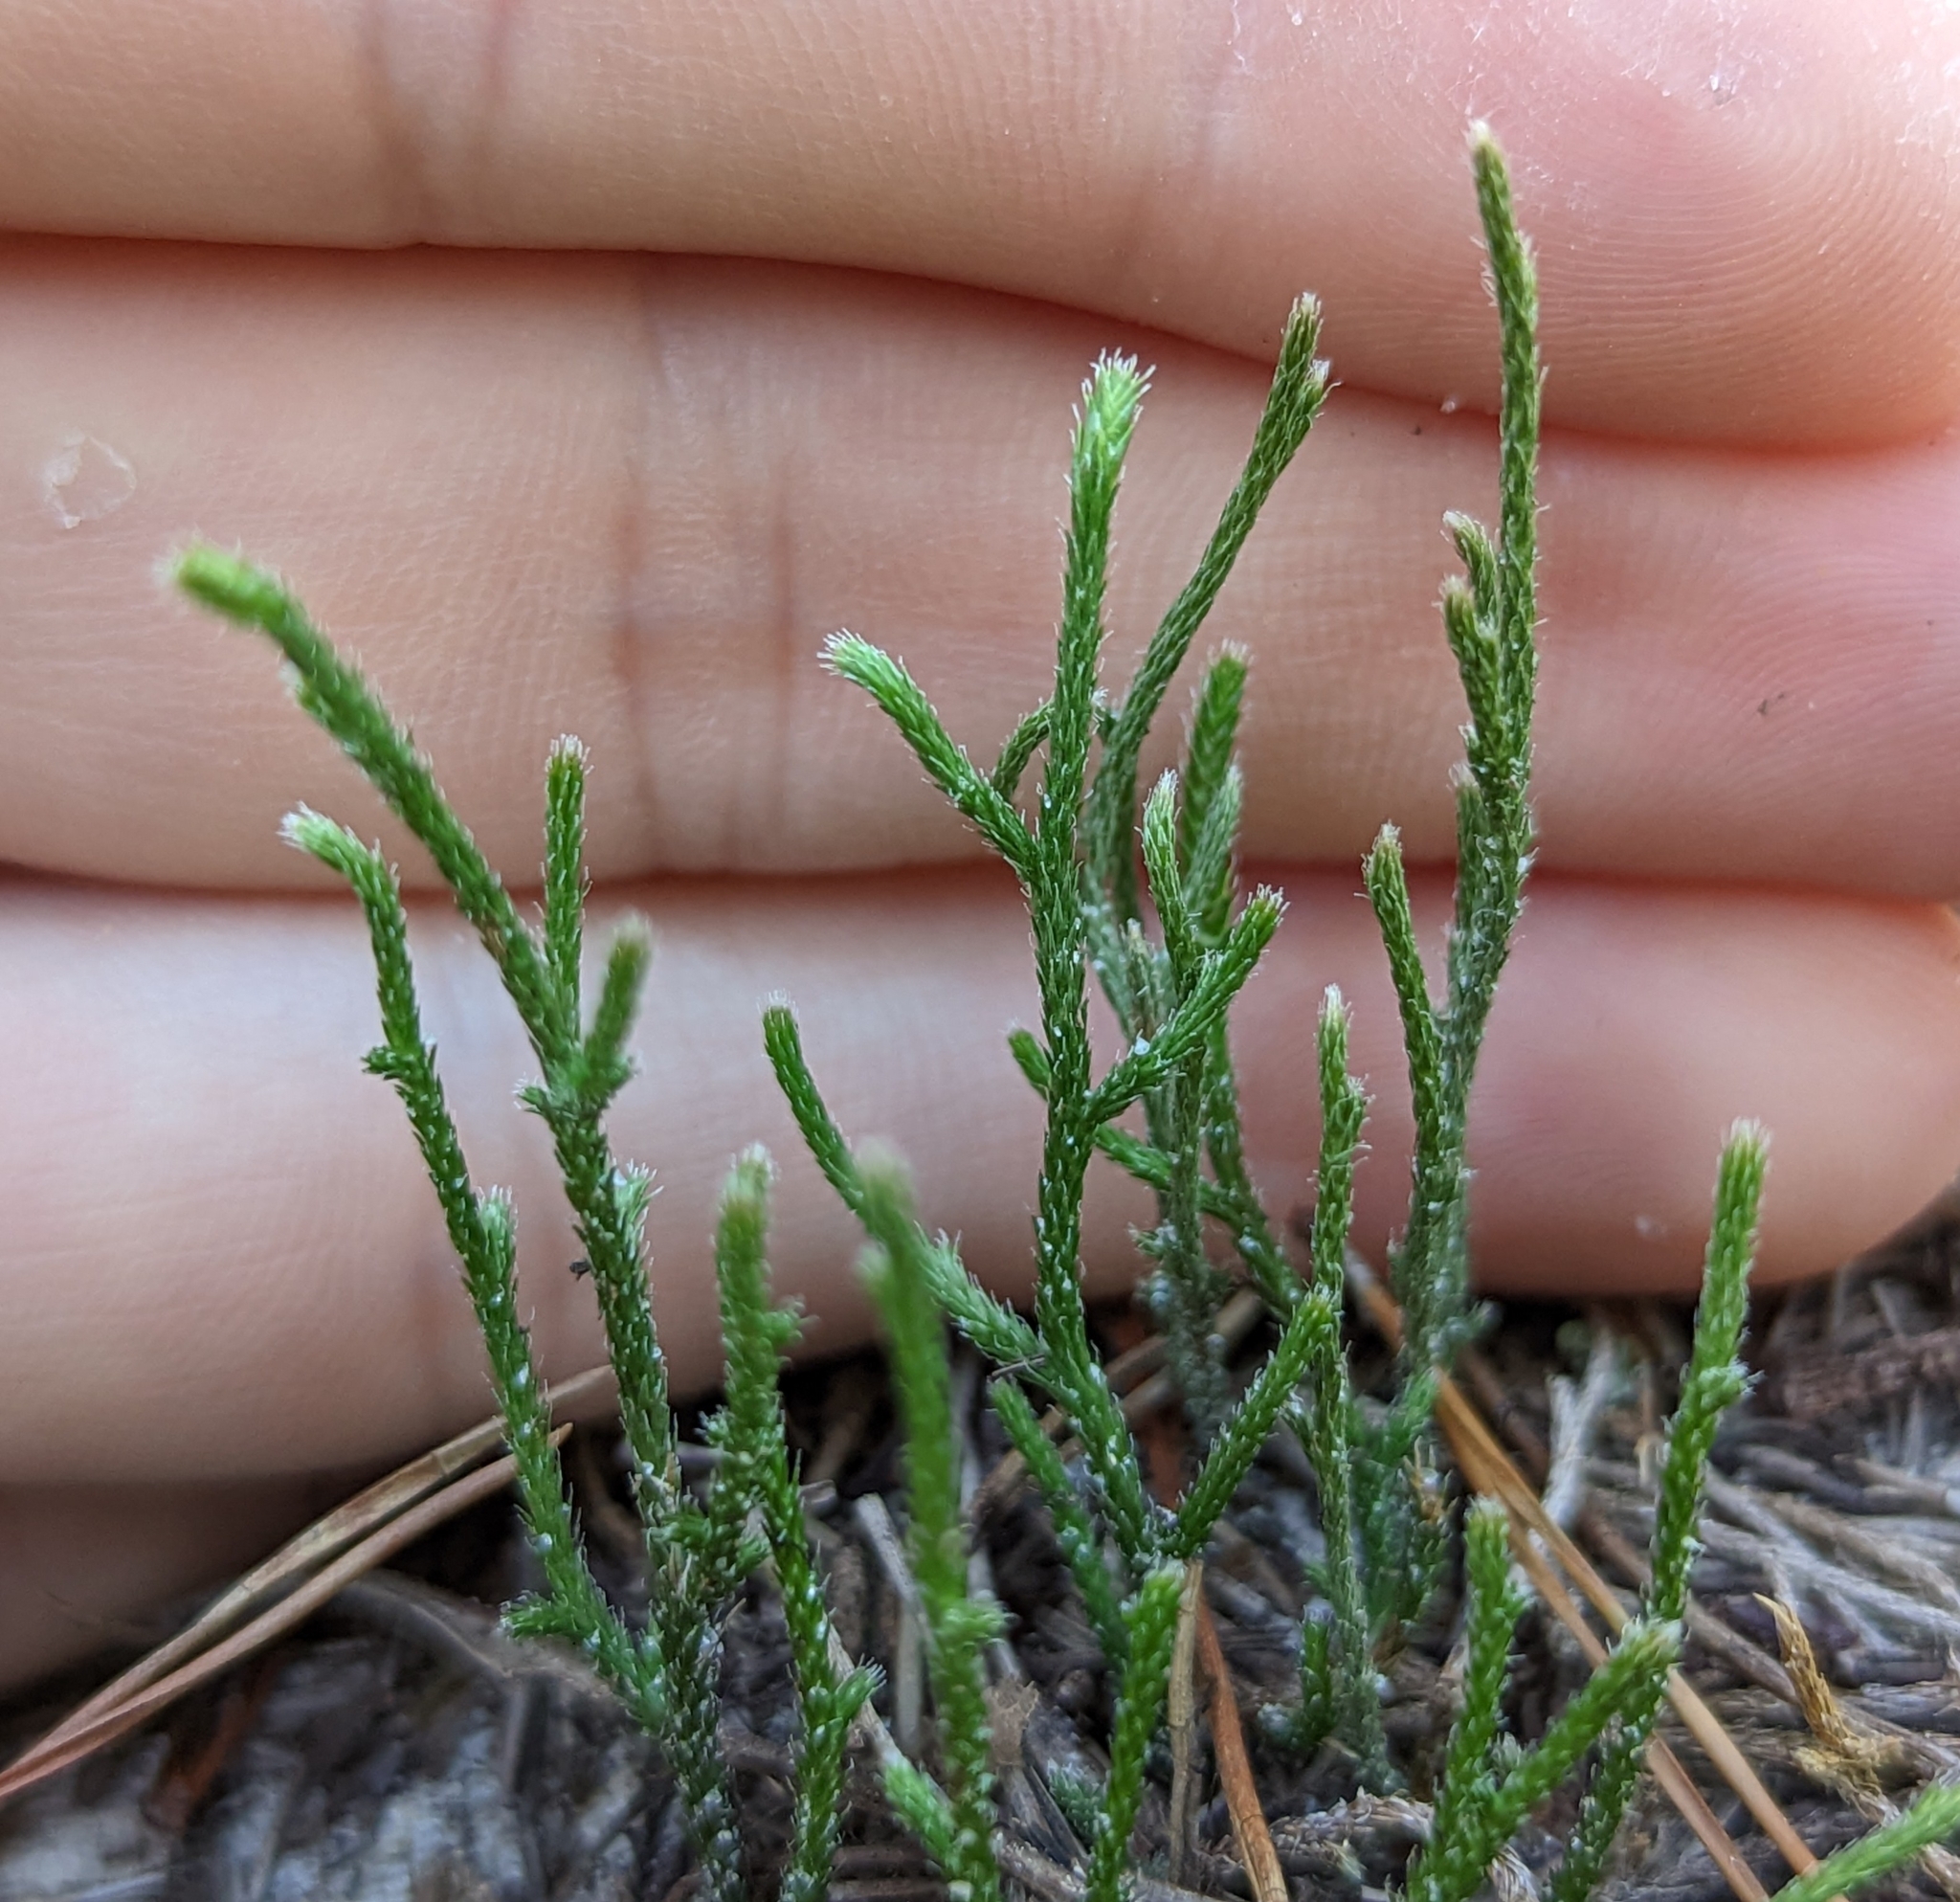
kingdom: Plantae
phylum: Tracheophyta
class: Lycopodiopsida
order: Selaginellales
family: Selaginellaceae
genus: Selaginella
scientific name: Selaginella arenicola
